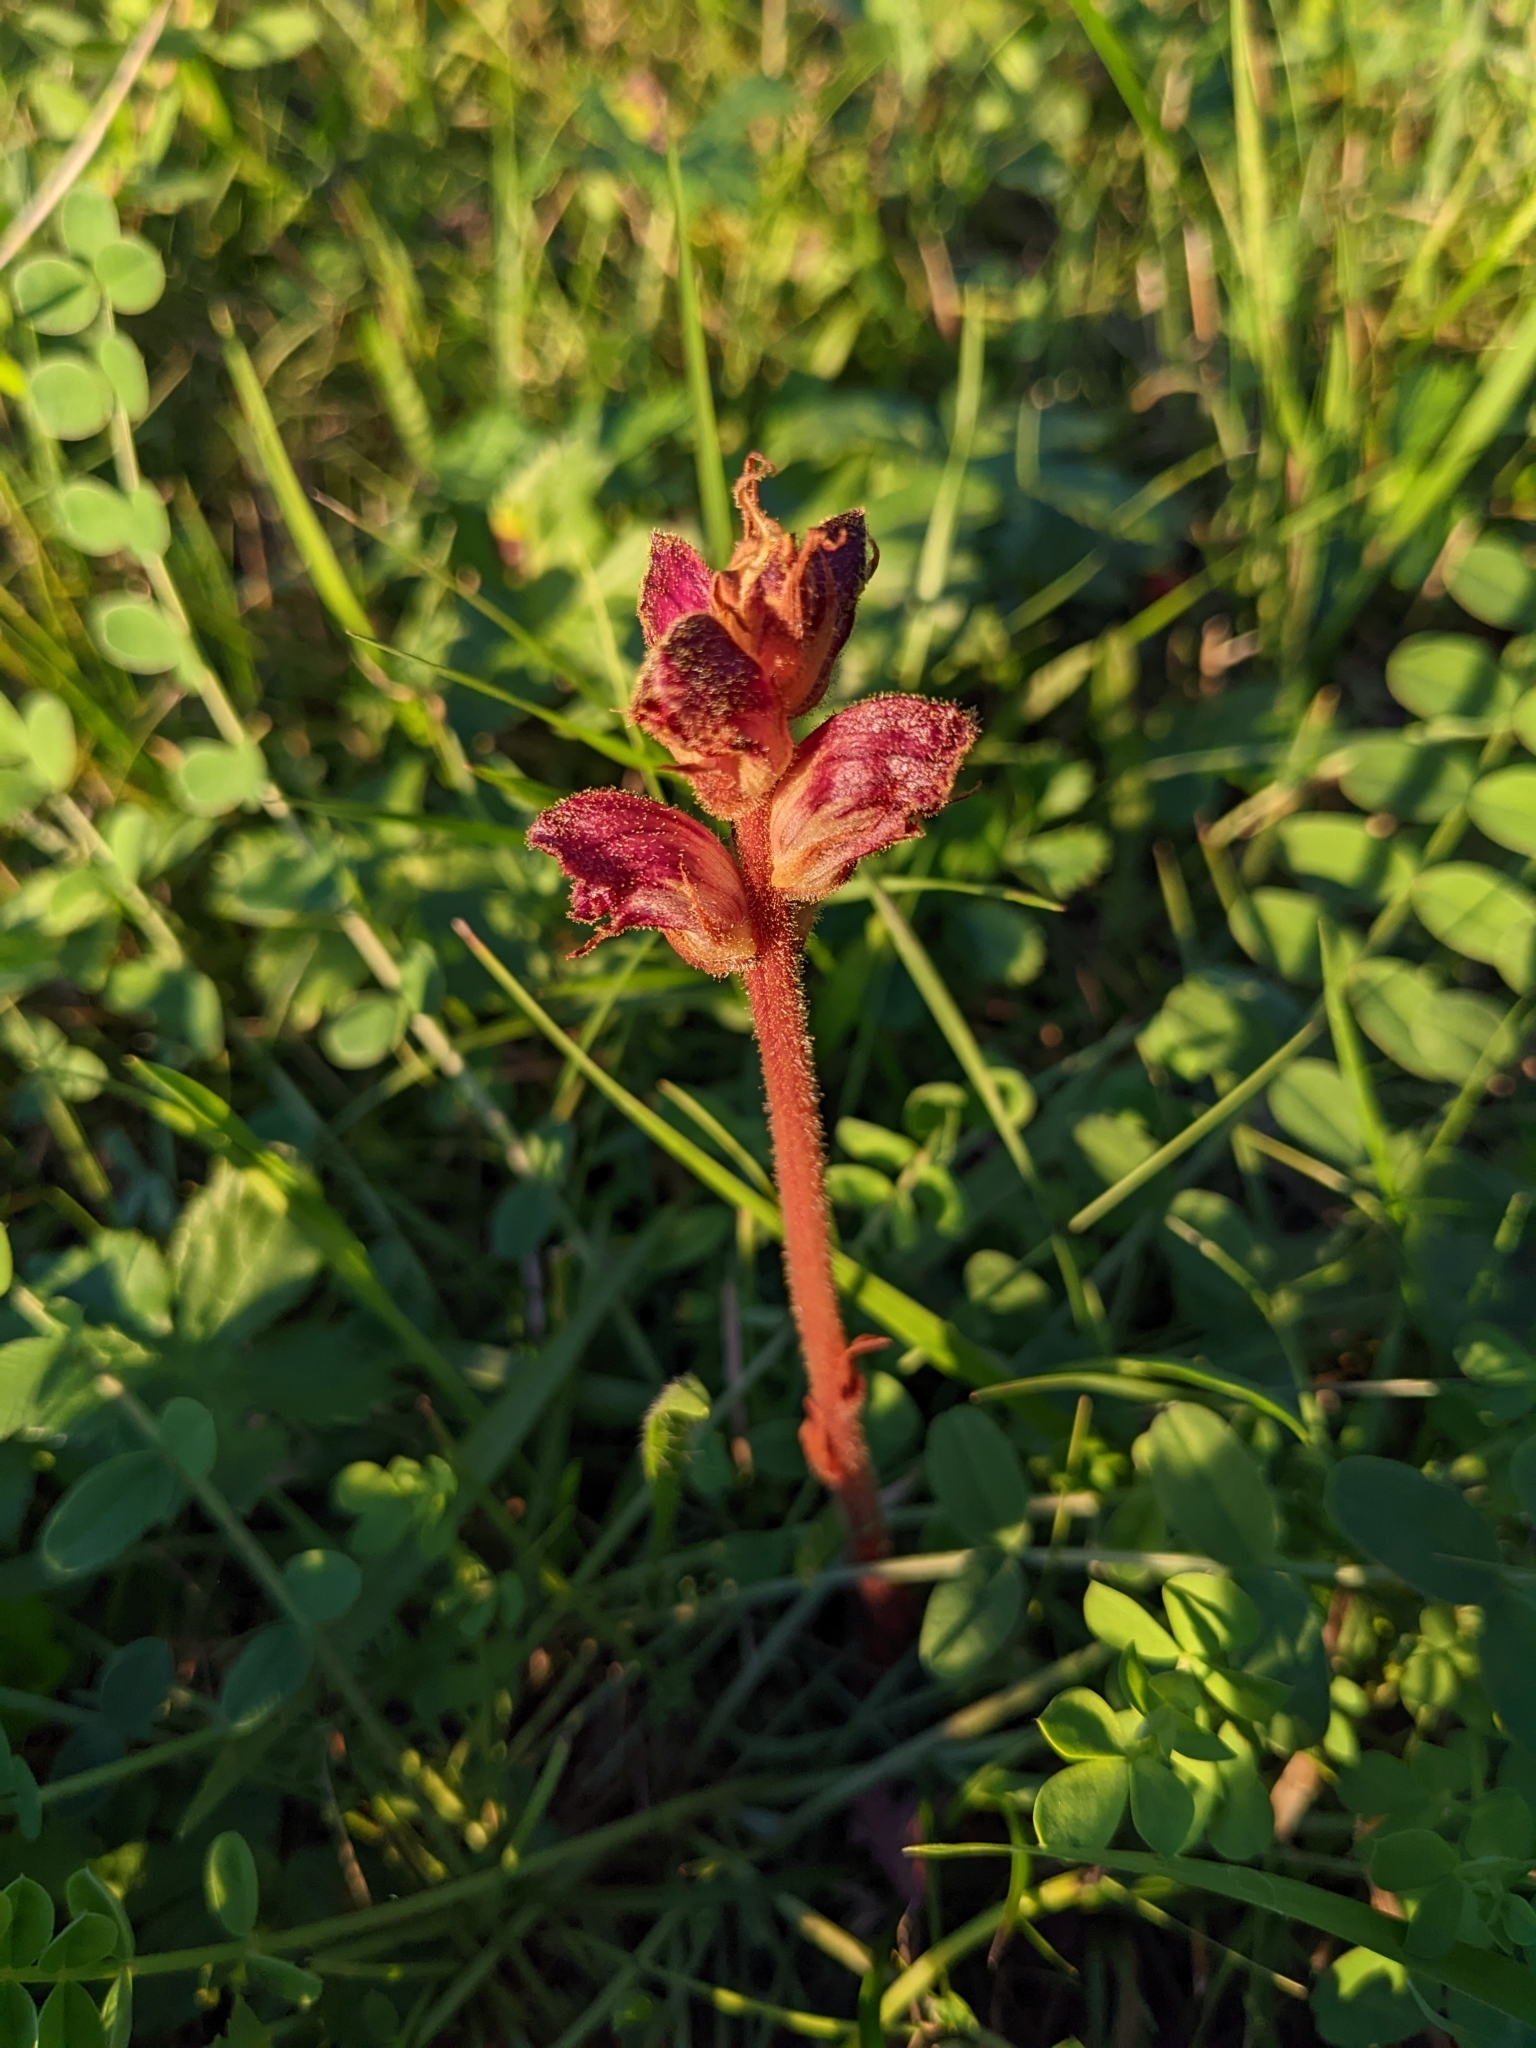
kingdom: Plantae
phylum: Tracheophyta
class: Magnoliopsida
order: Lamiales
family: Orobanchaceae
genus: Orobanche
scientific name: Orobanche gracilis
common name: Slender broomrape
